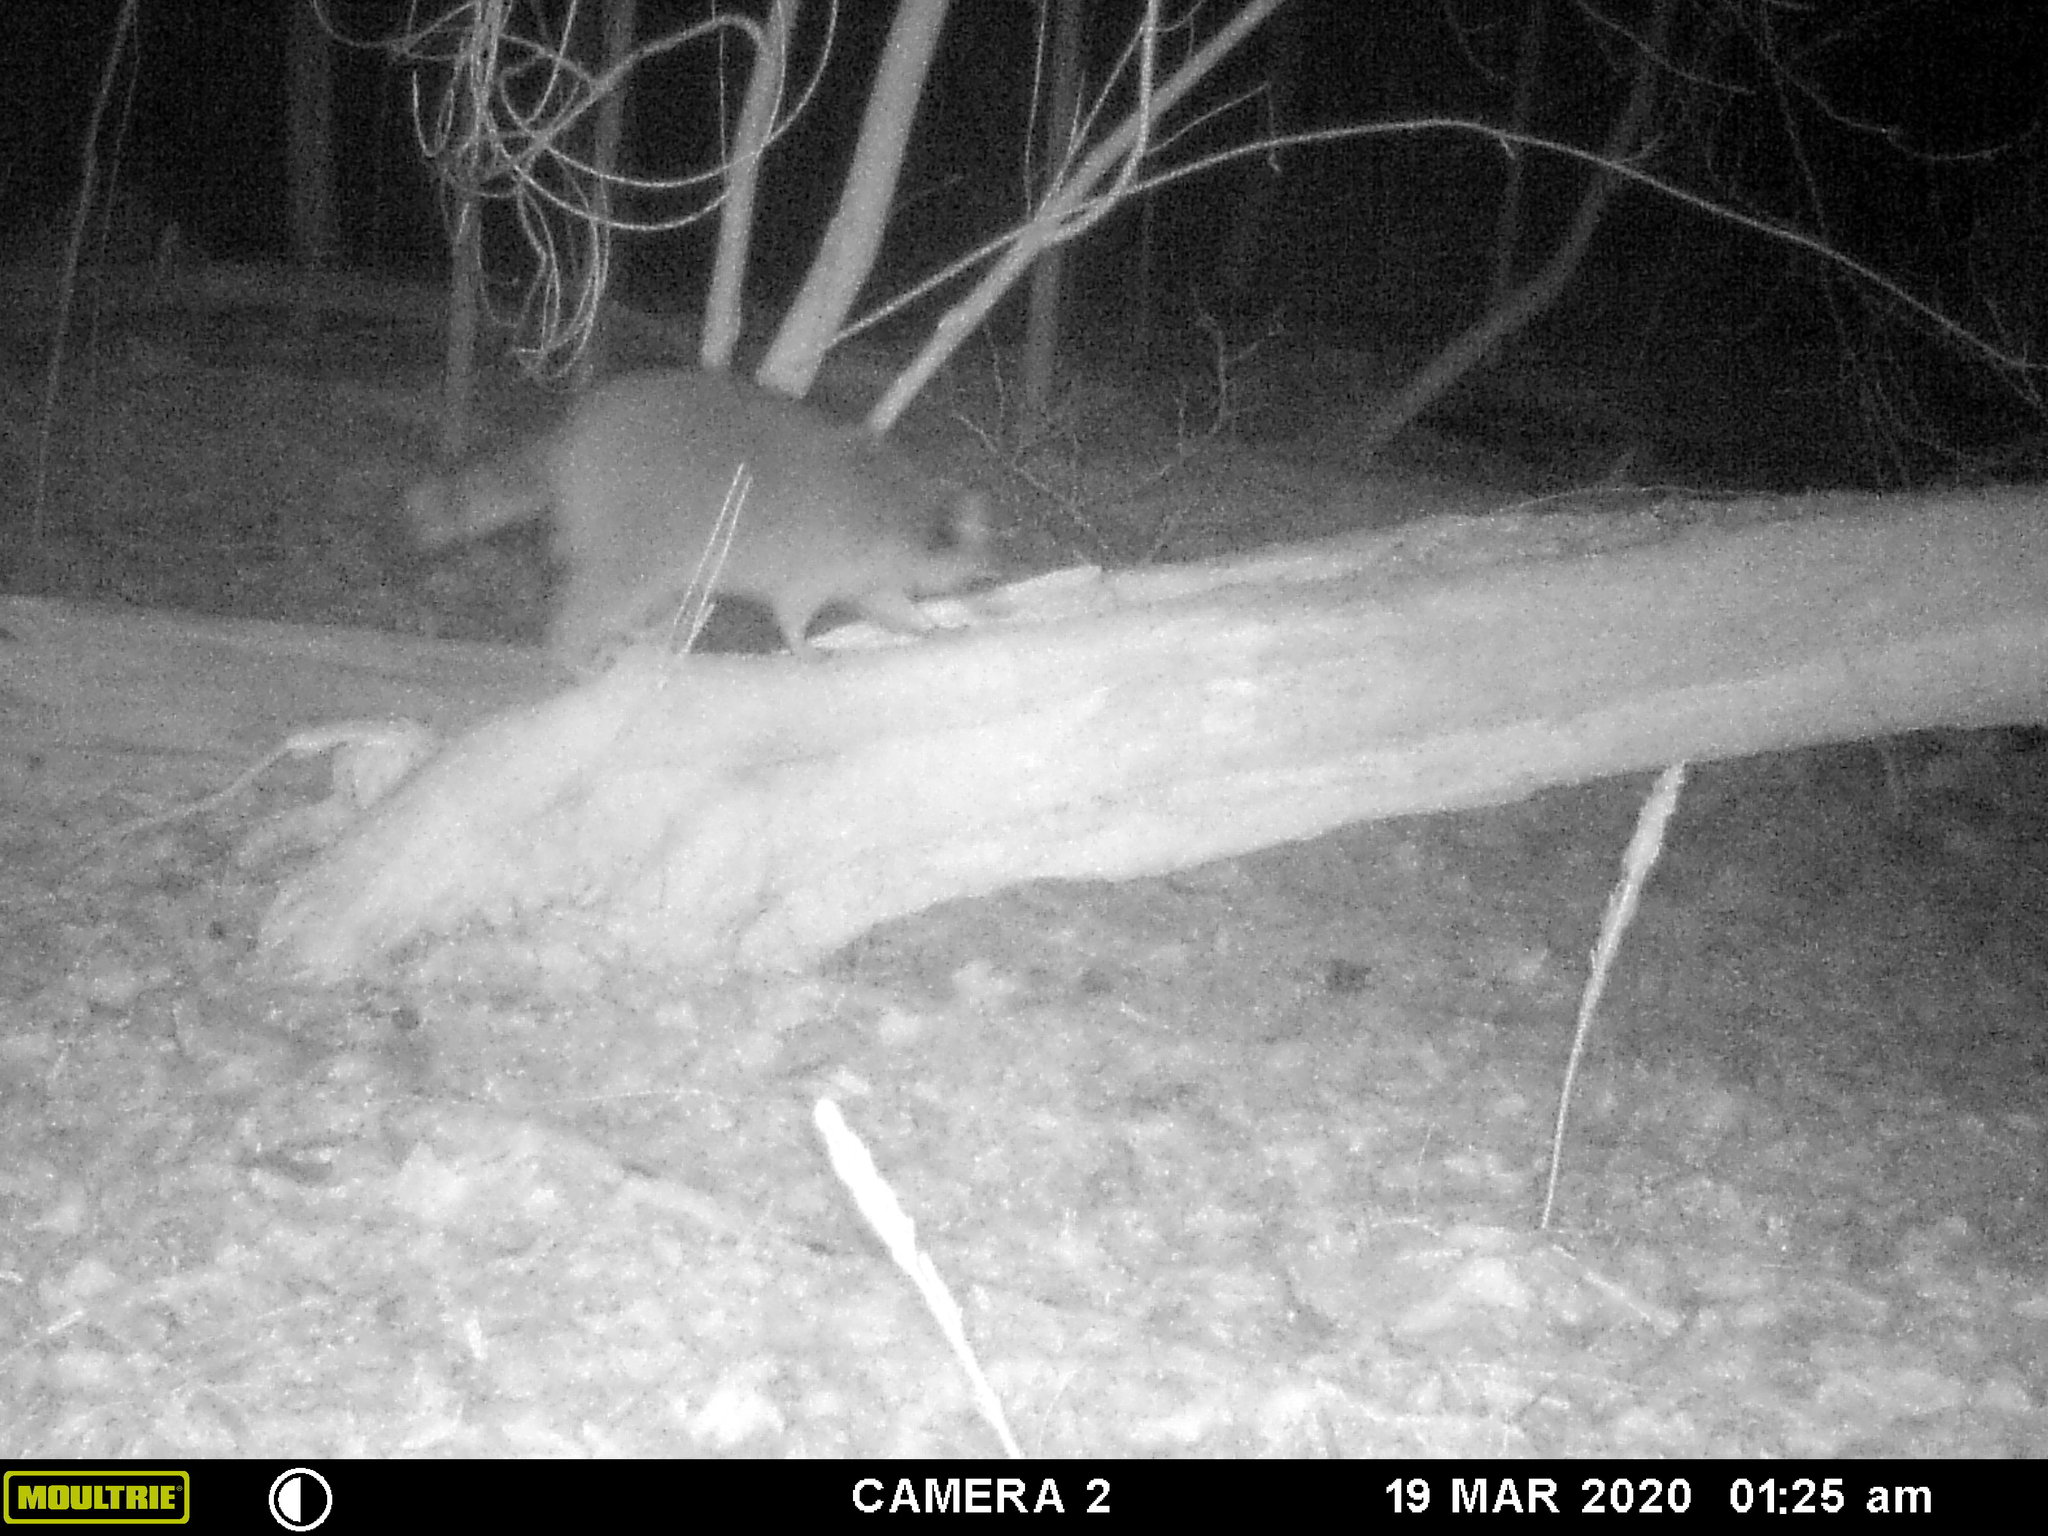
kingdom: Animalia
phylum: Chordata
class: Mammalia
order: Carnivora
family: Procyonidae
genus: Procyon
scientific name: Procyon lotor
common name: Raccoon
